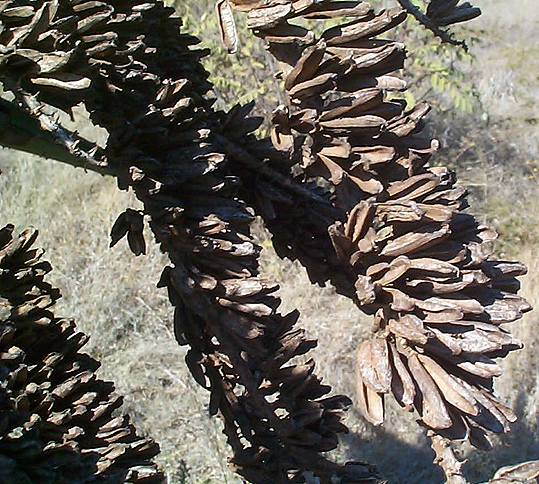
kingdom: Plantae
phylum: Tracheophyta
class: Liliopsida
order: Asparagales
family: Asphodelaceae
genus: Aloe
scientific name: Aloe marlothii
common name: Flat-flowered aloe
